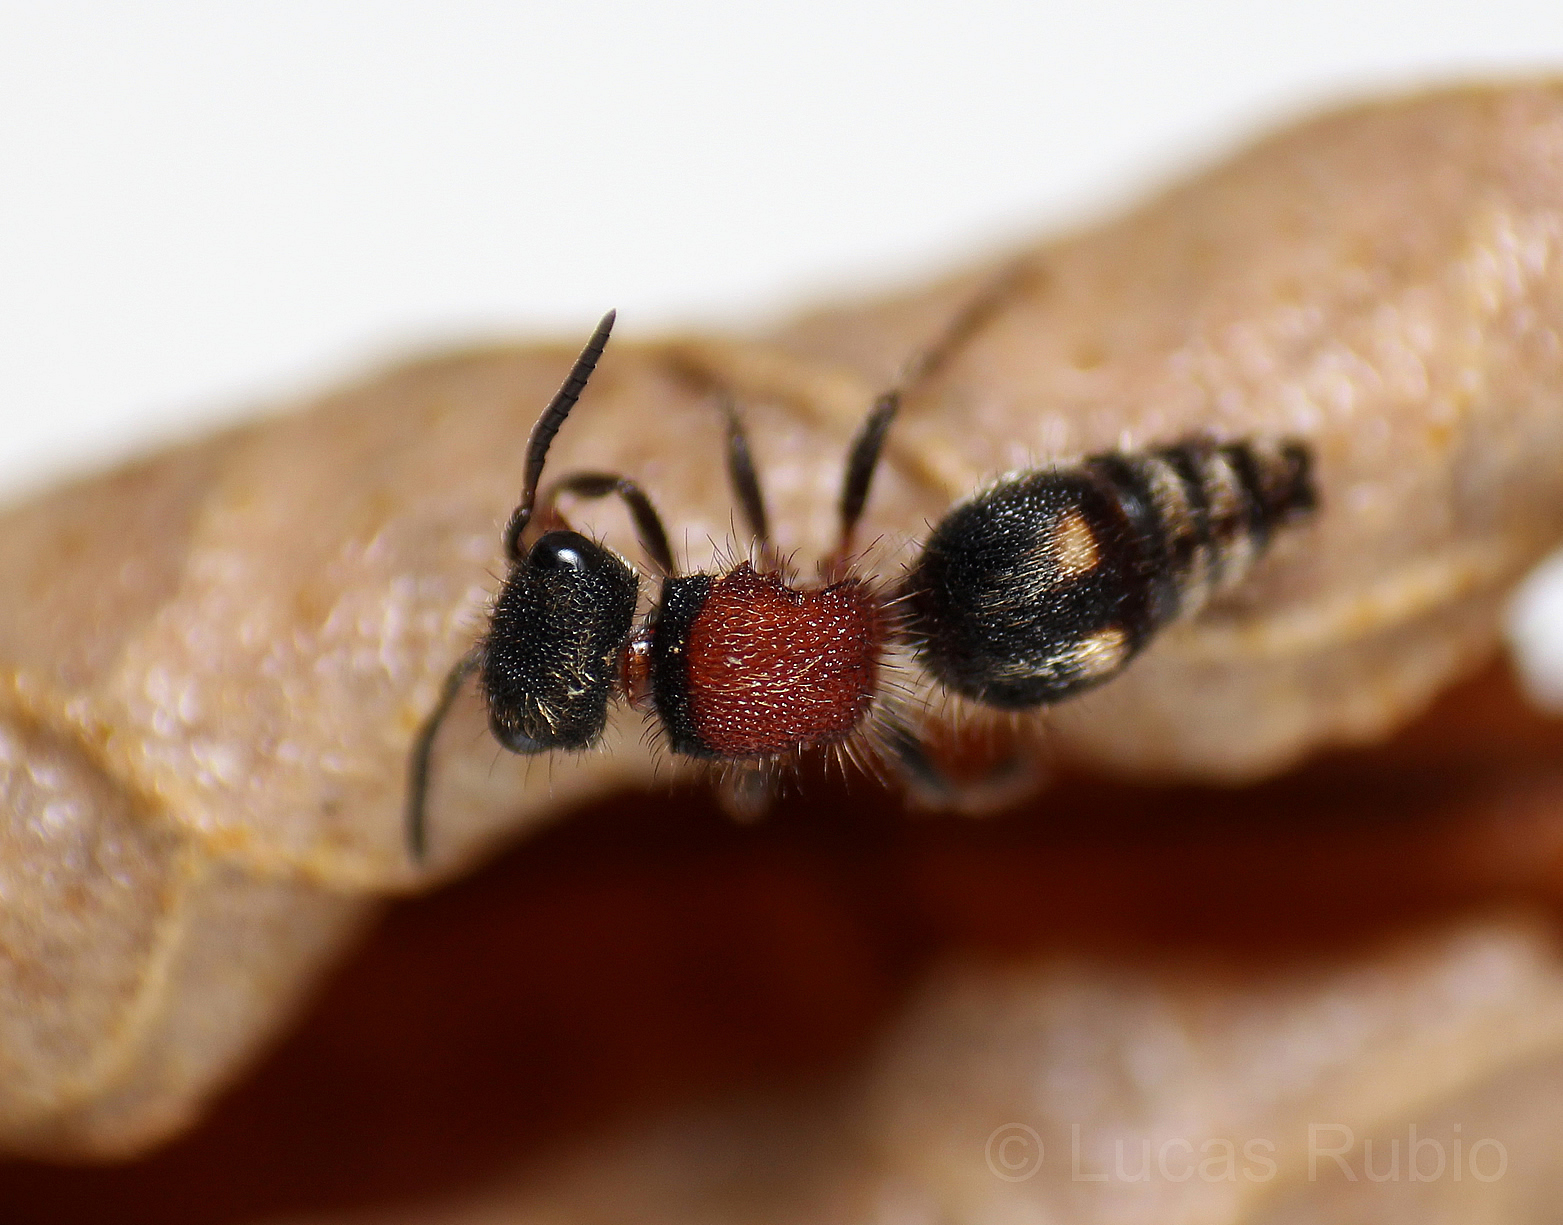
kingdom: Animalia
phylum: Arthropoda
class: Insecta
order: Hymenoptera
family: Mutillidae
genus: Anomophotopsis
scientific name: Anomophotopsis
